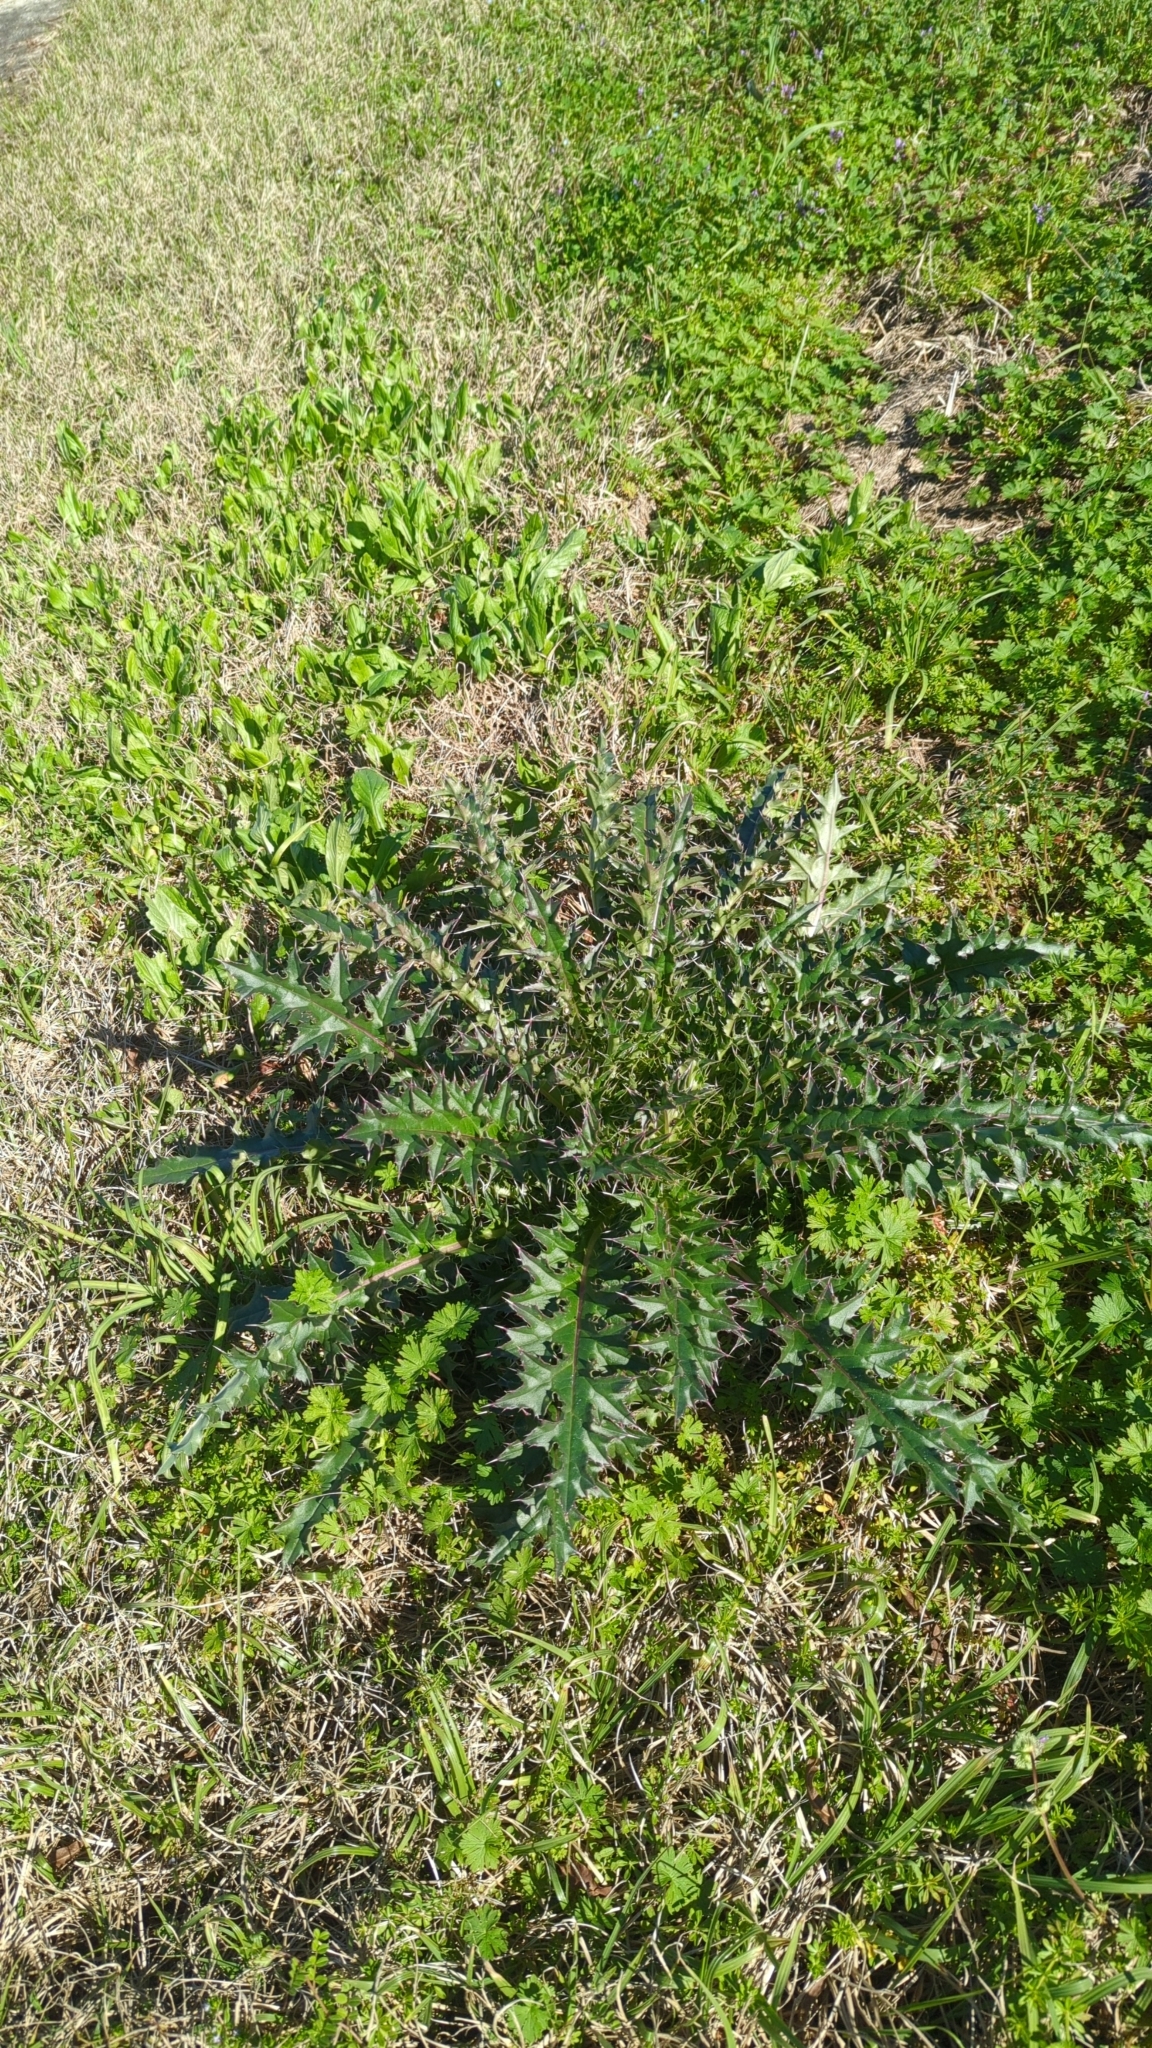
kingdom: Plantae
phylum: Tracheophyta
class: Magnoliopsida
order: Asterales
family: Asteraceae
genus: Cirsium
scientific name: Cirsium horridulum
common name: Bristly thistle
